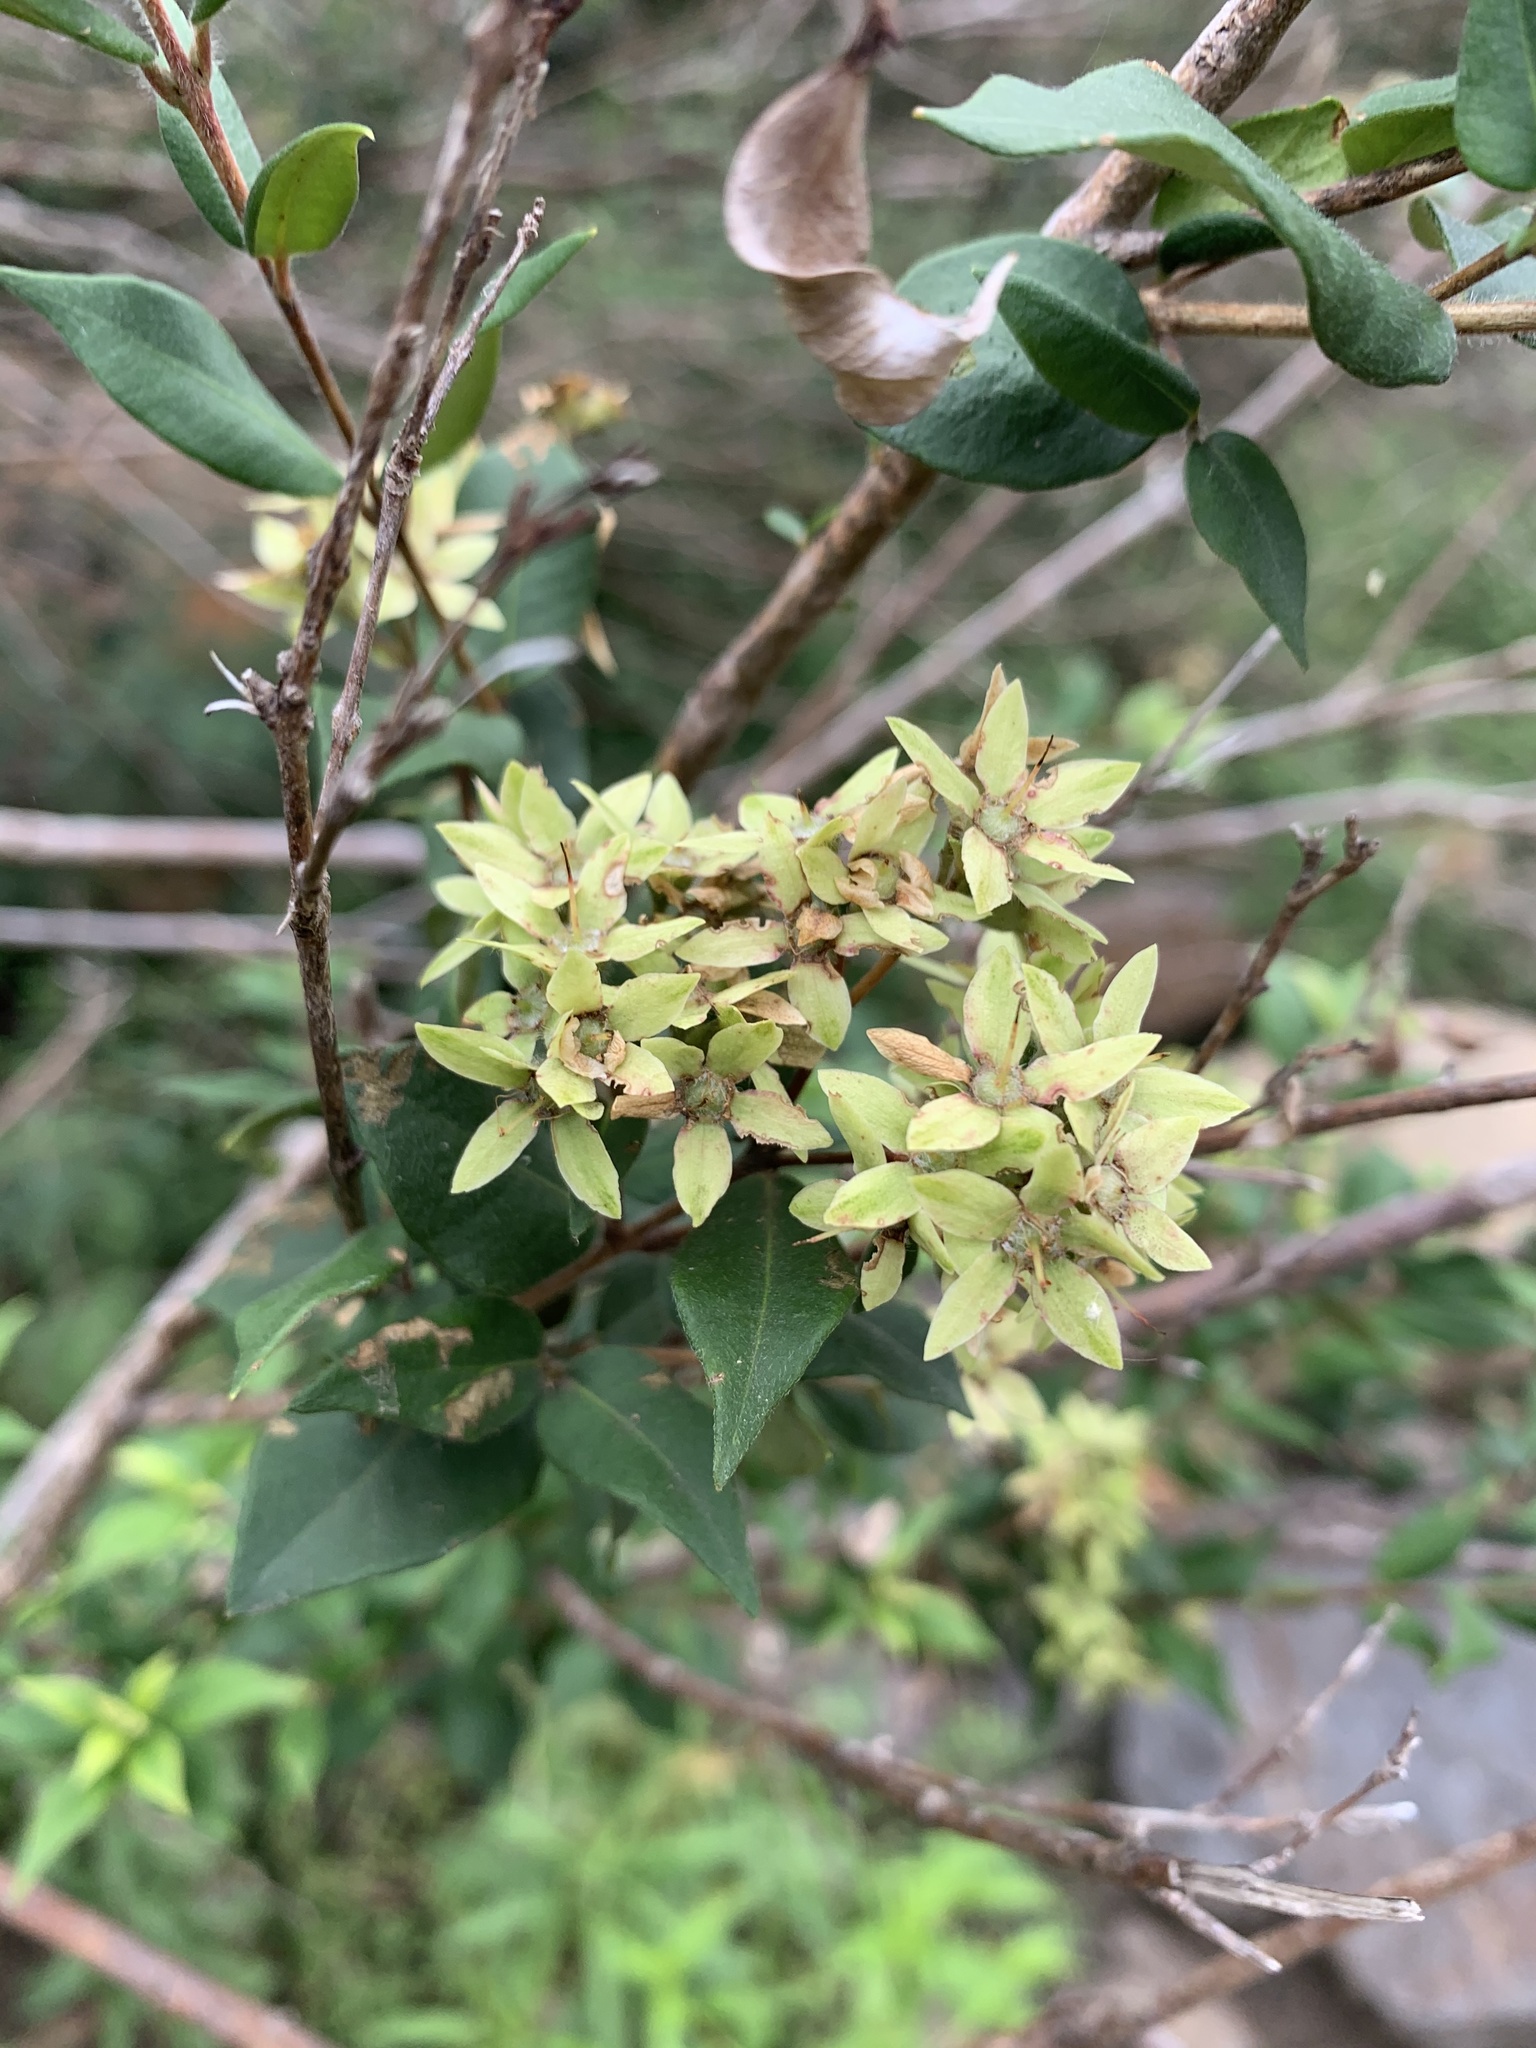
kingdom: Plantae
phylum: Tracheophyta
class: Magnoliopsida
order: Myrtales
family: Myrtaceae
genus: Backhousia
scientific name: Backhousia myrtifolia
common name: Carrol
